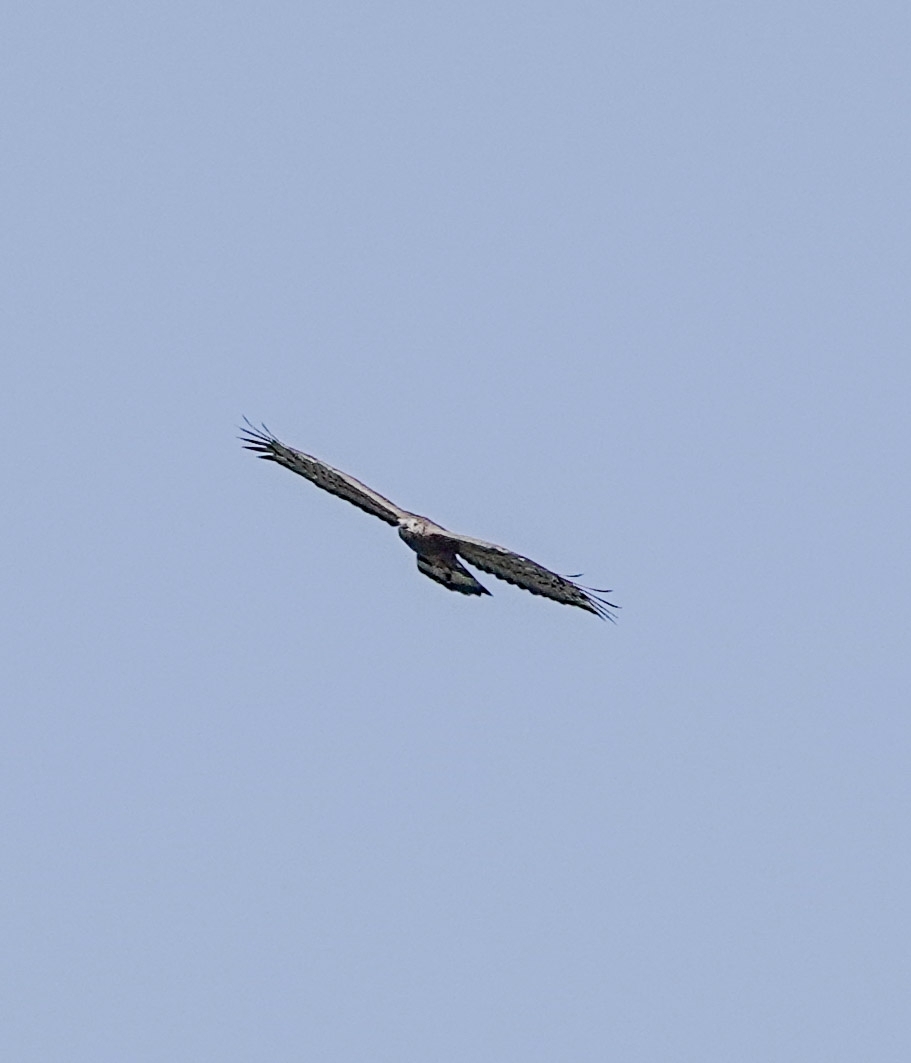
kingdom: Animalia
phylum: Chordata
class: Aves
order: Accipitriformes
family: Accipitridae
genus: Pernis
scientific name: Pernis ptilorhynchus
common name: Crested honey buzzard
